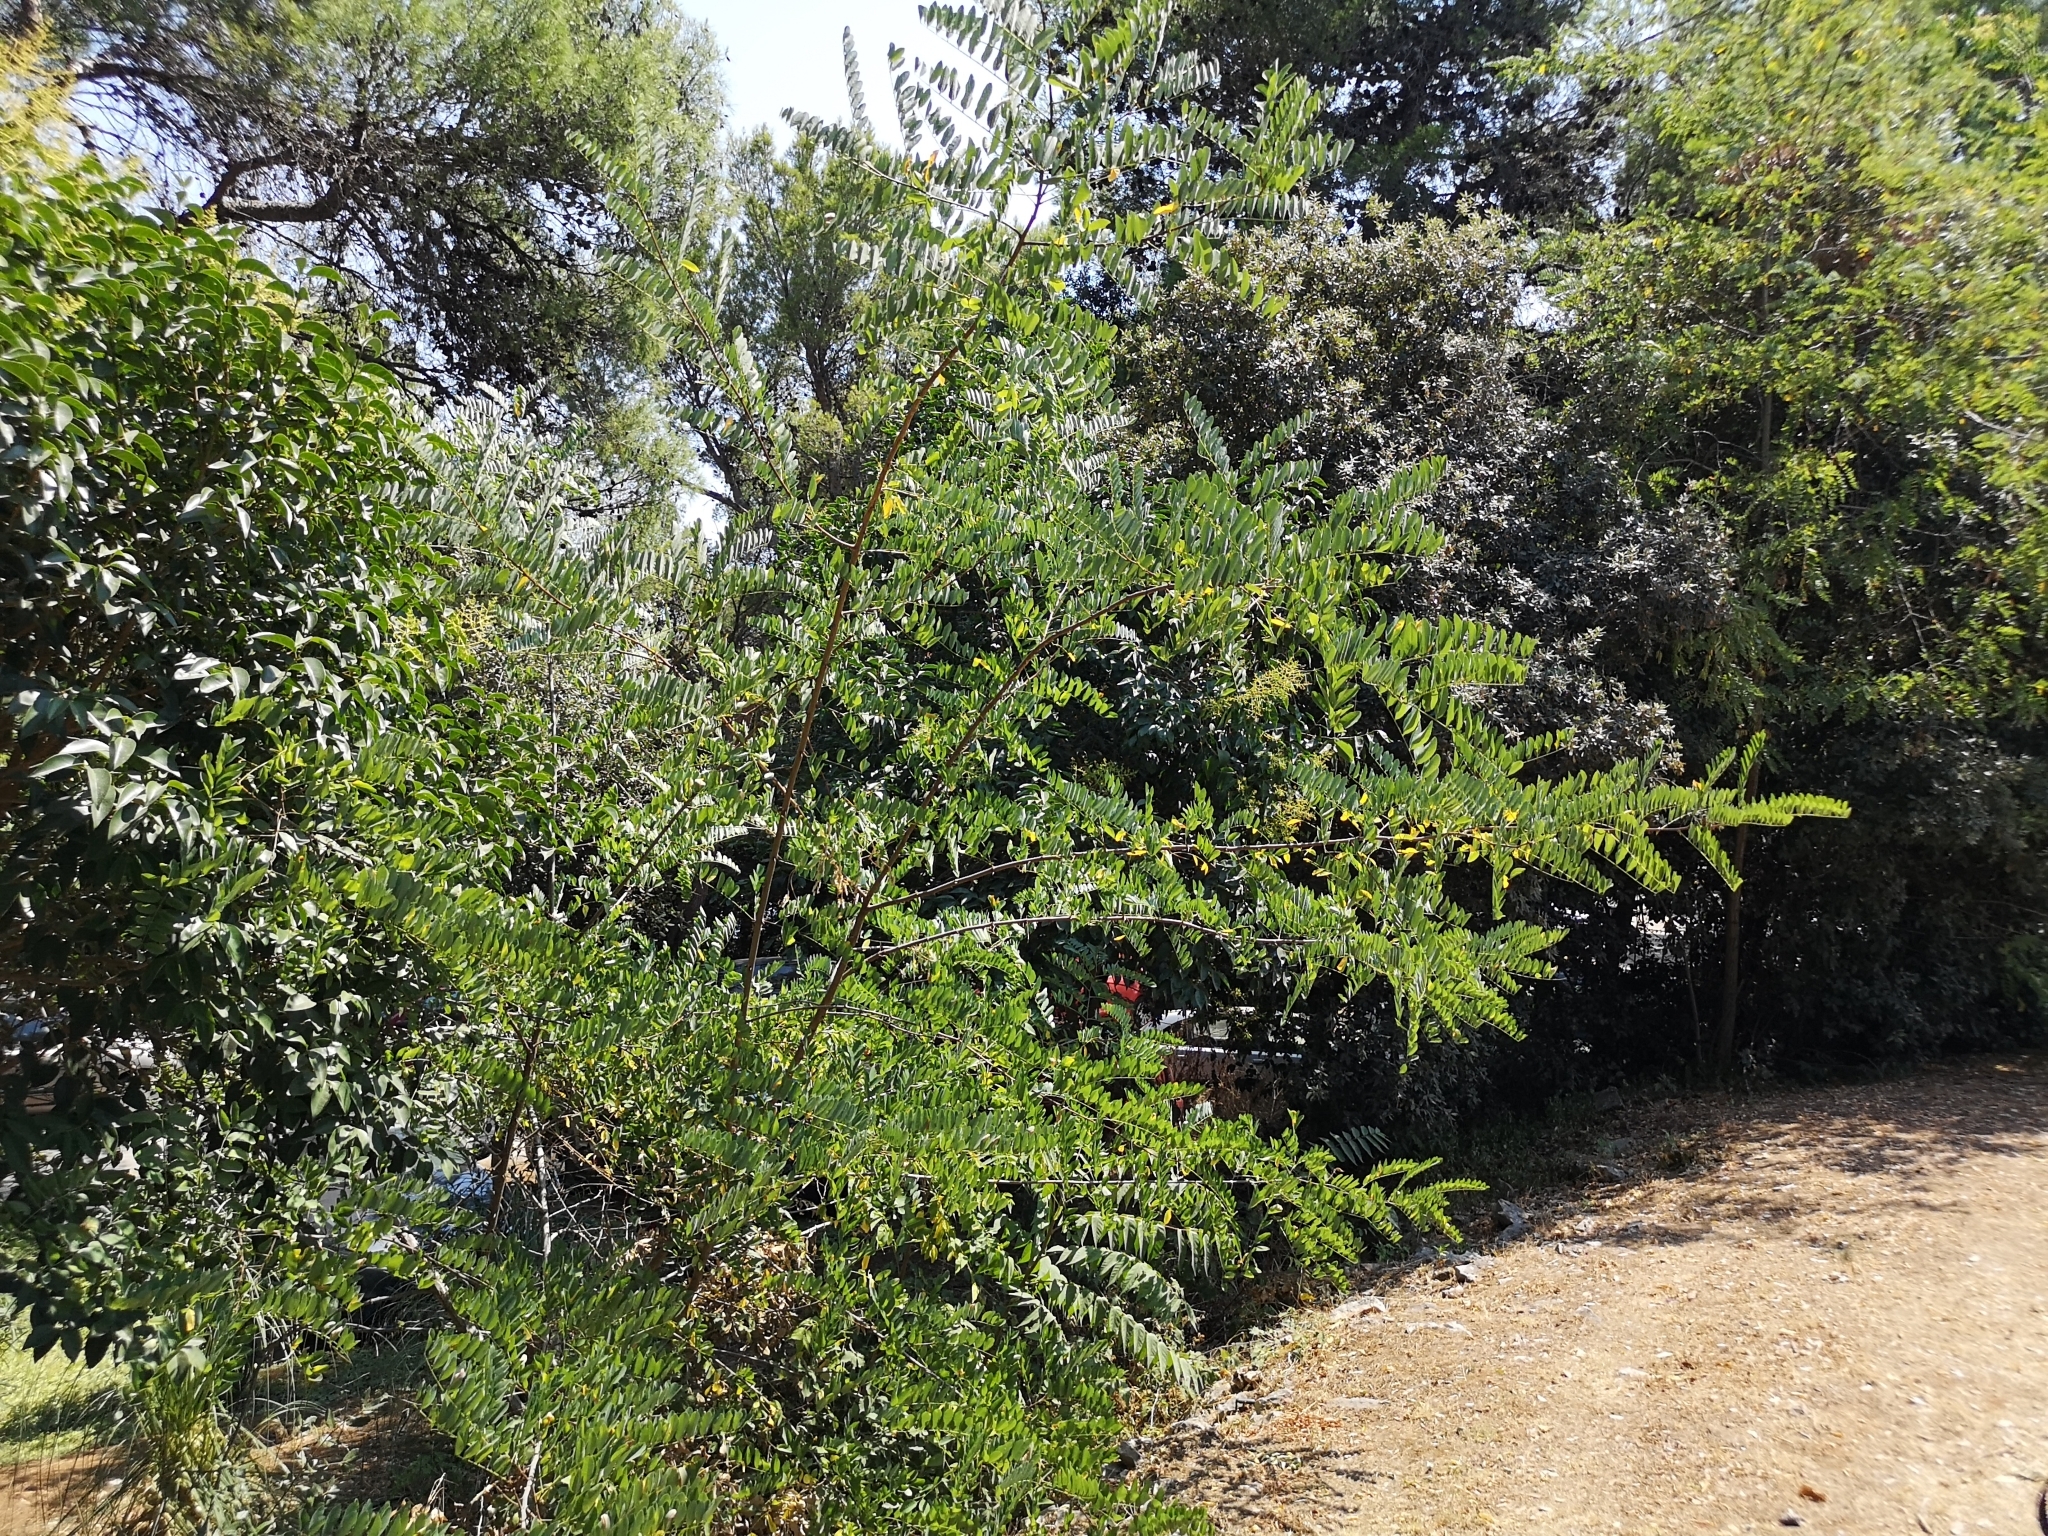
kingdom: Plantae
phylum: Tracheophyta
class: Magnoliopsida
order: Fabales
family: Fabaceae
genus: Robinia
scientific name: Robinia pseudoacacia
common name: Black locust
